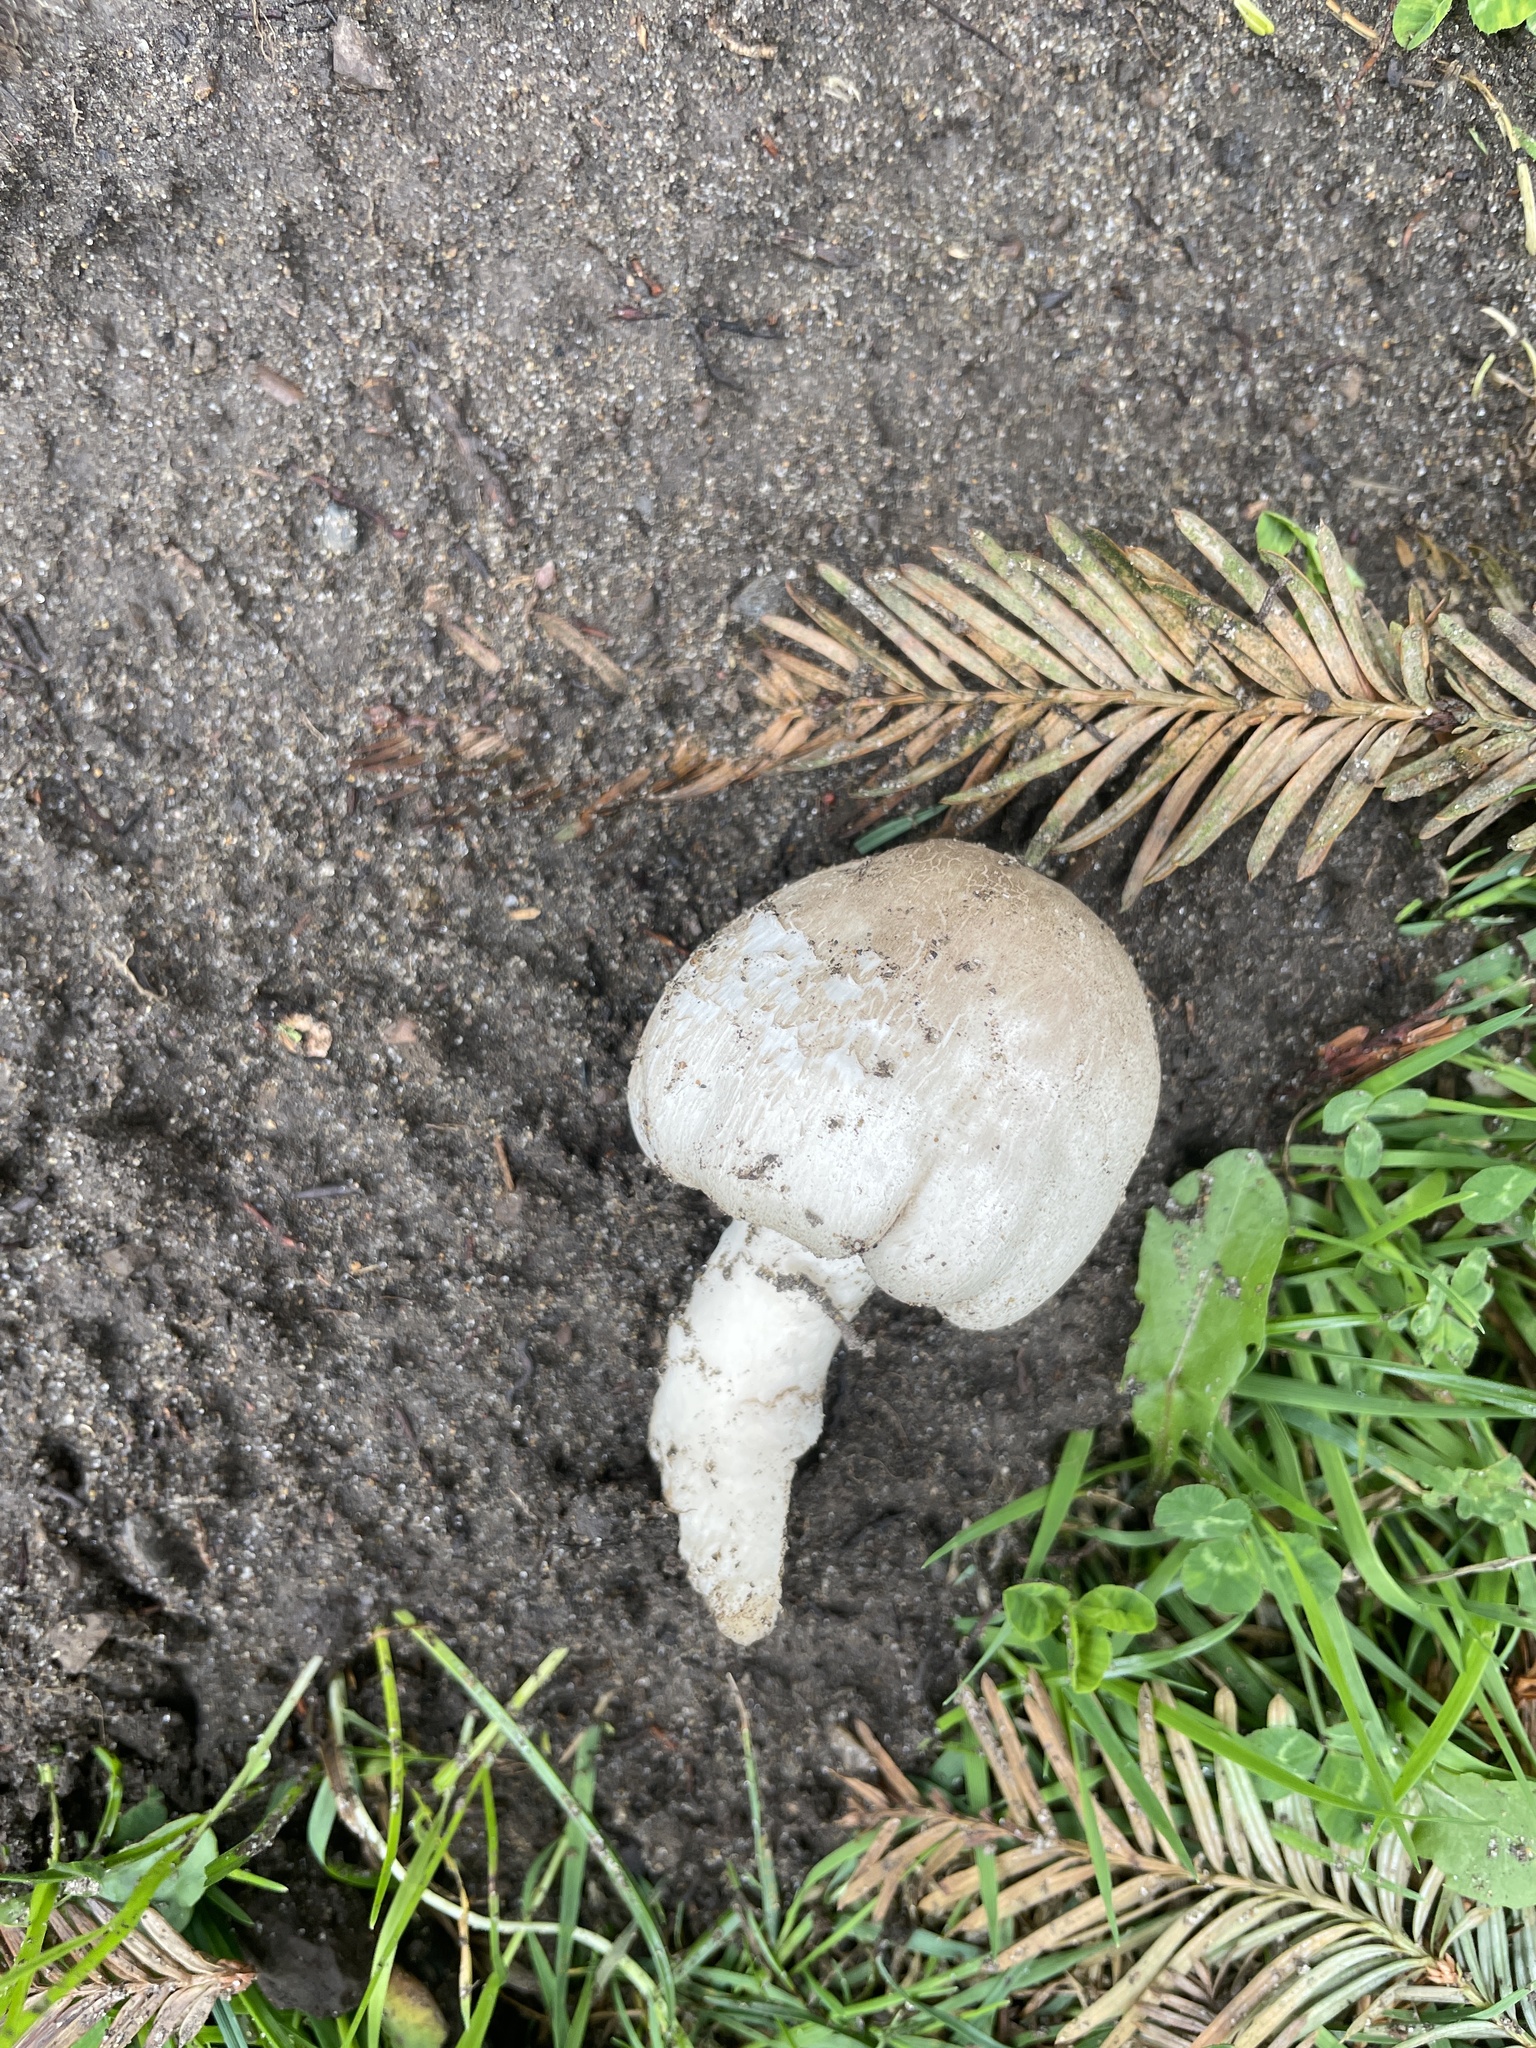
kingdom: Fungi
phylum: Basidiomycota
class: Agaricomycetes
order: Agaricales
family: Agaricaceae
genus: Leucoagaricus
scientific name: Leucoagaricus barssii
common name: Smoky dapperling
